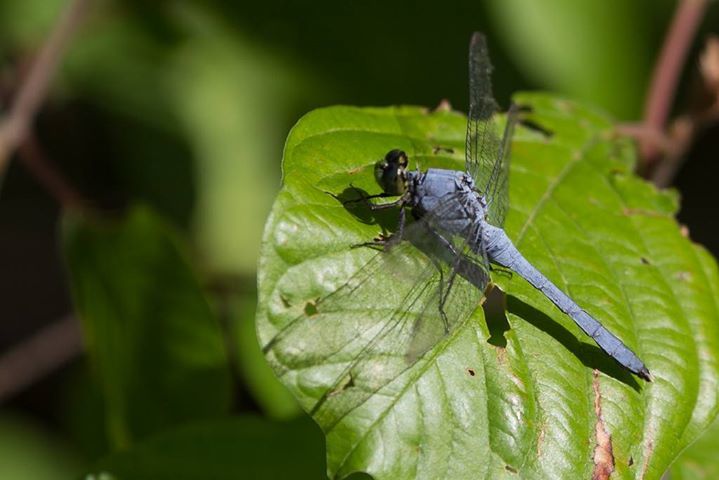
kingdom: Animalia
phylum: Arthropoda
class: Insecta
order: Odonata
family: Libellulidae
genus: Erythemis
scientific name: Erythemis simplicicollis
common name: Eastern pondhawk
